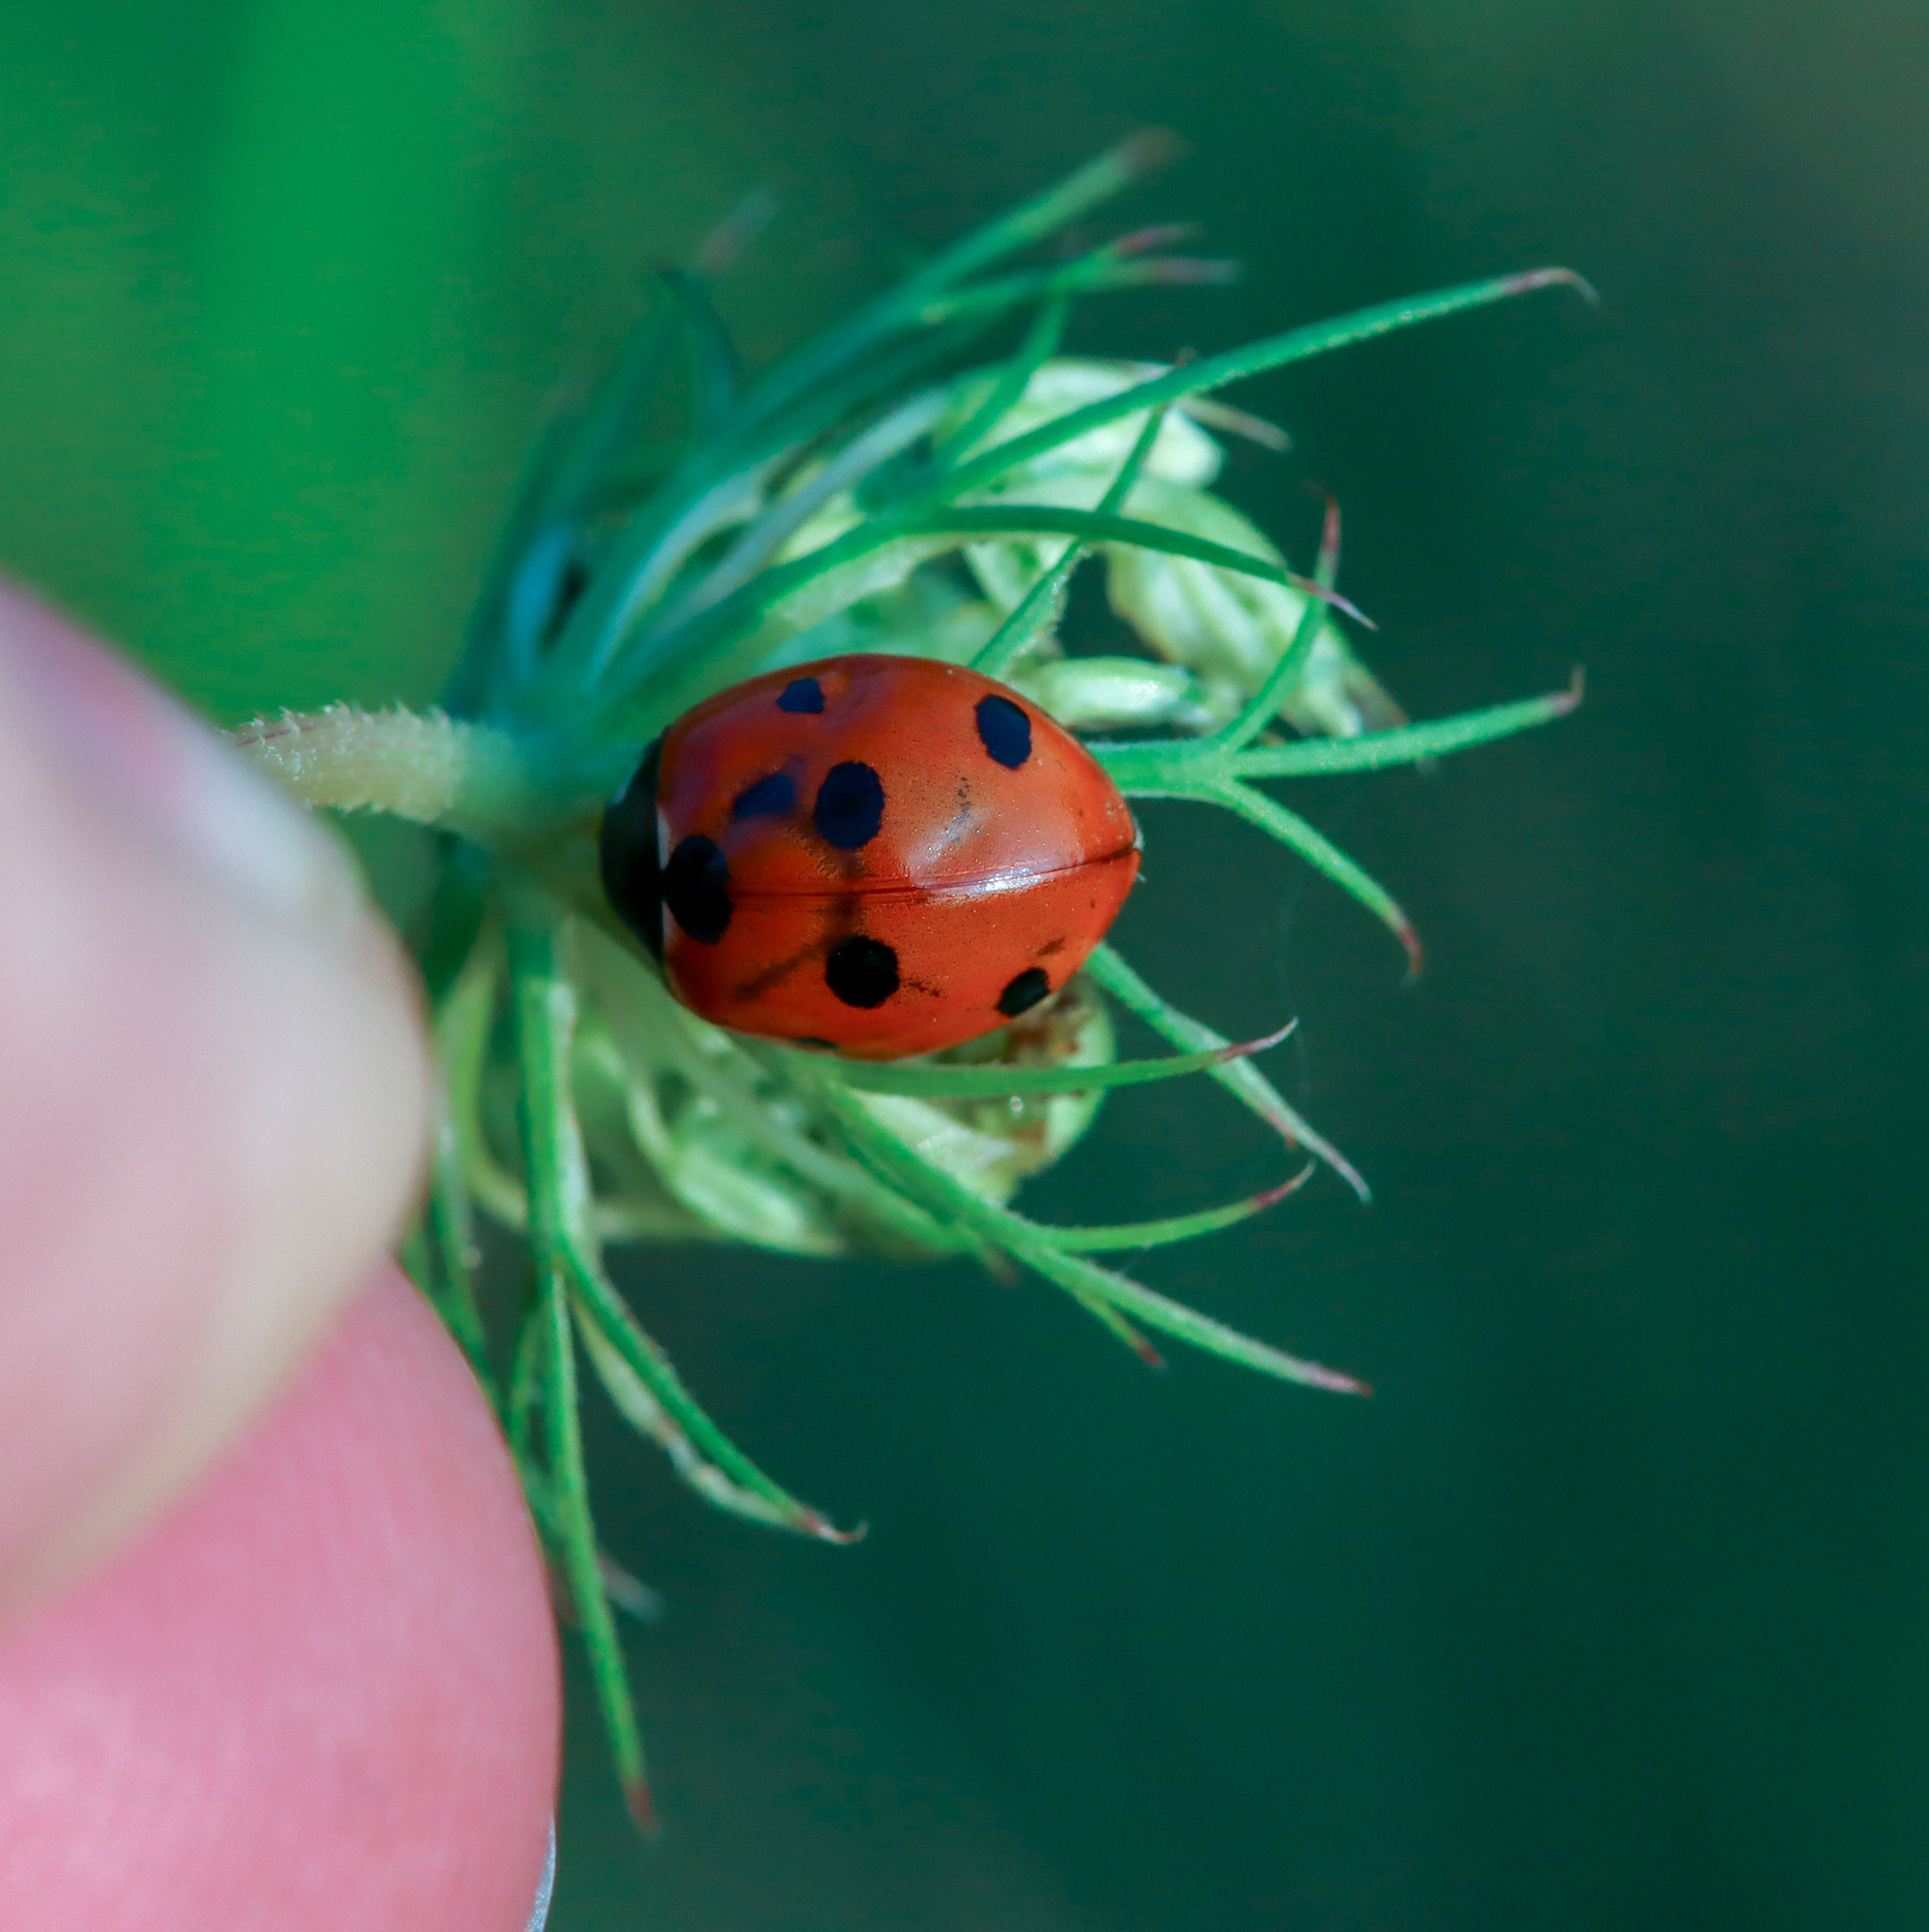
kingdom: Animalia
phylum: Arthropoda
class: Insecta
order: Coleoptera
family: Coccinellidae
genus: Coccinella
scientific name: Coccinella septempunctata
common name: Sevenspotted lady beetle
